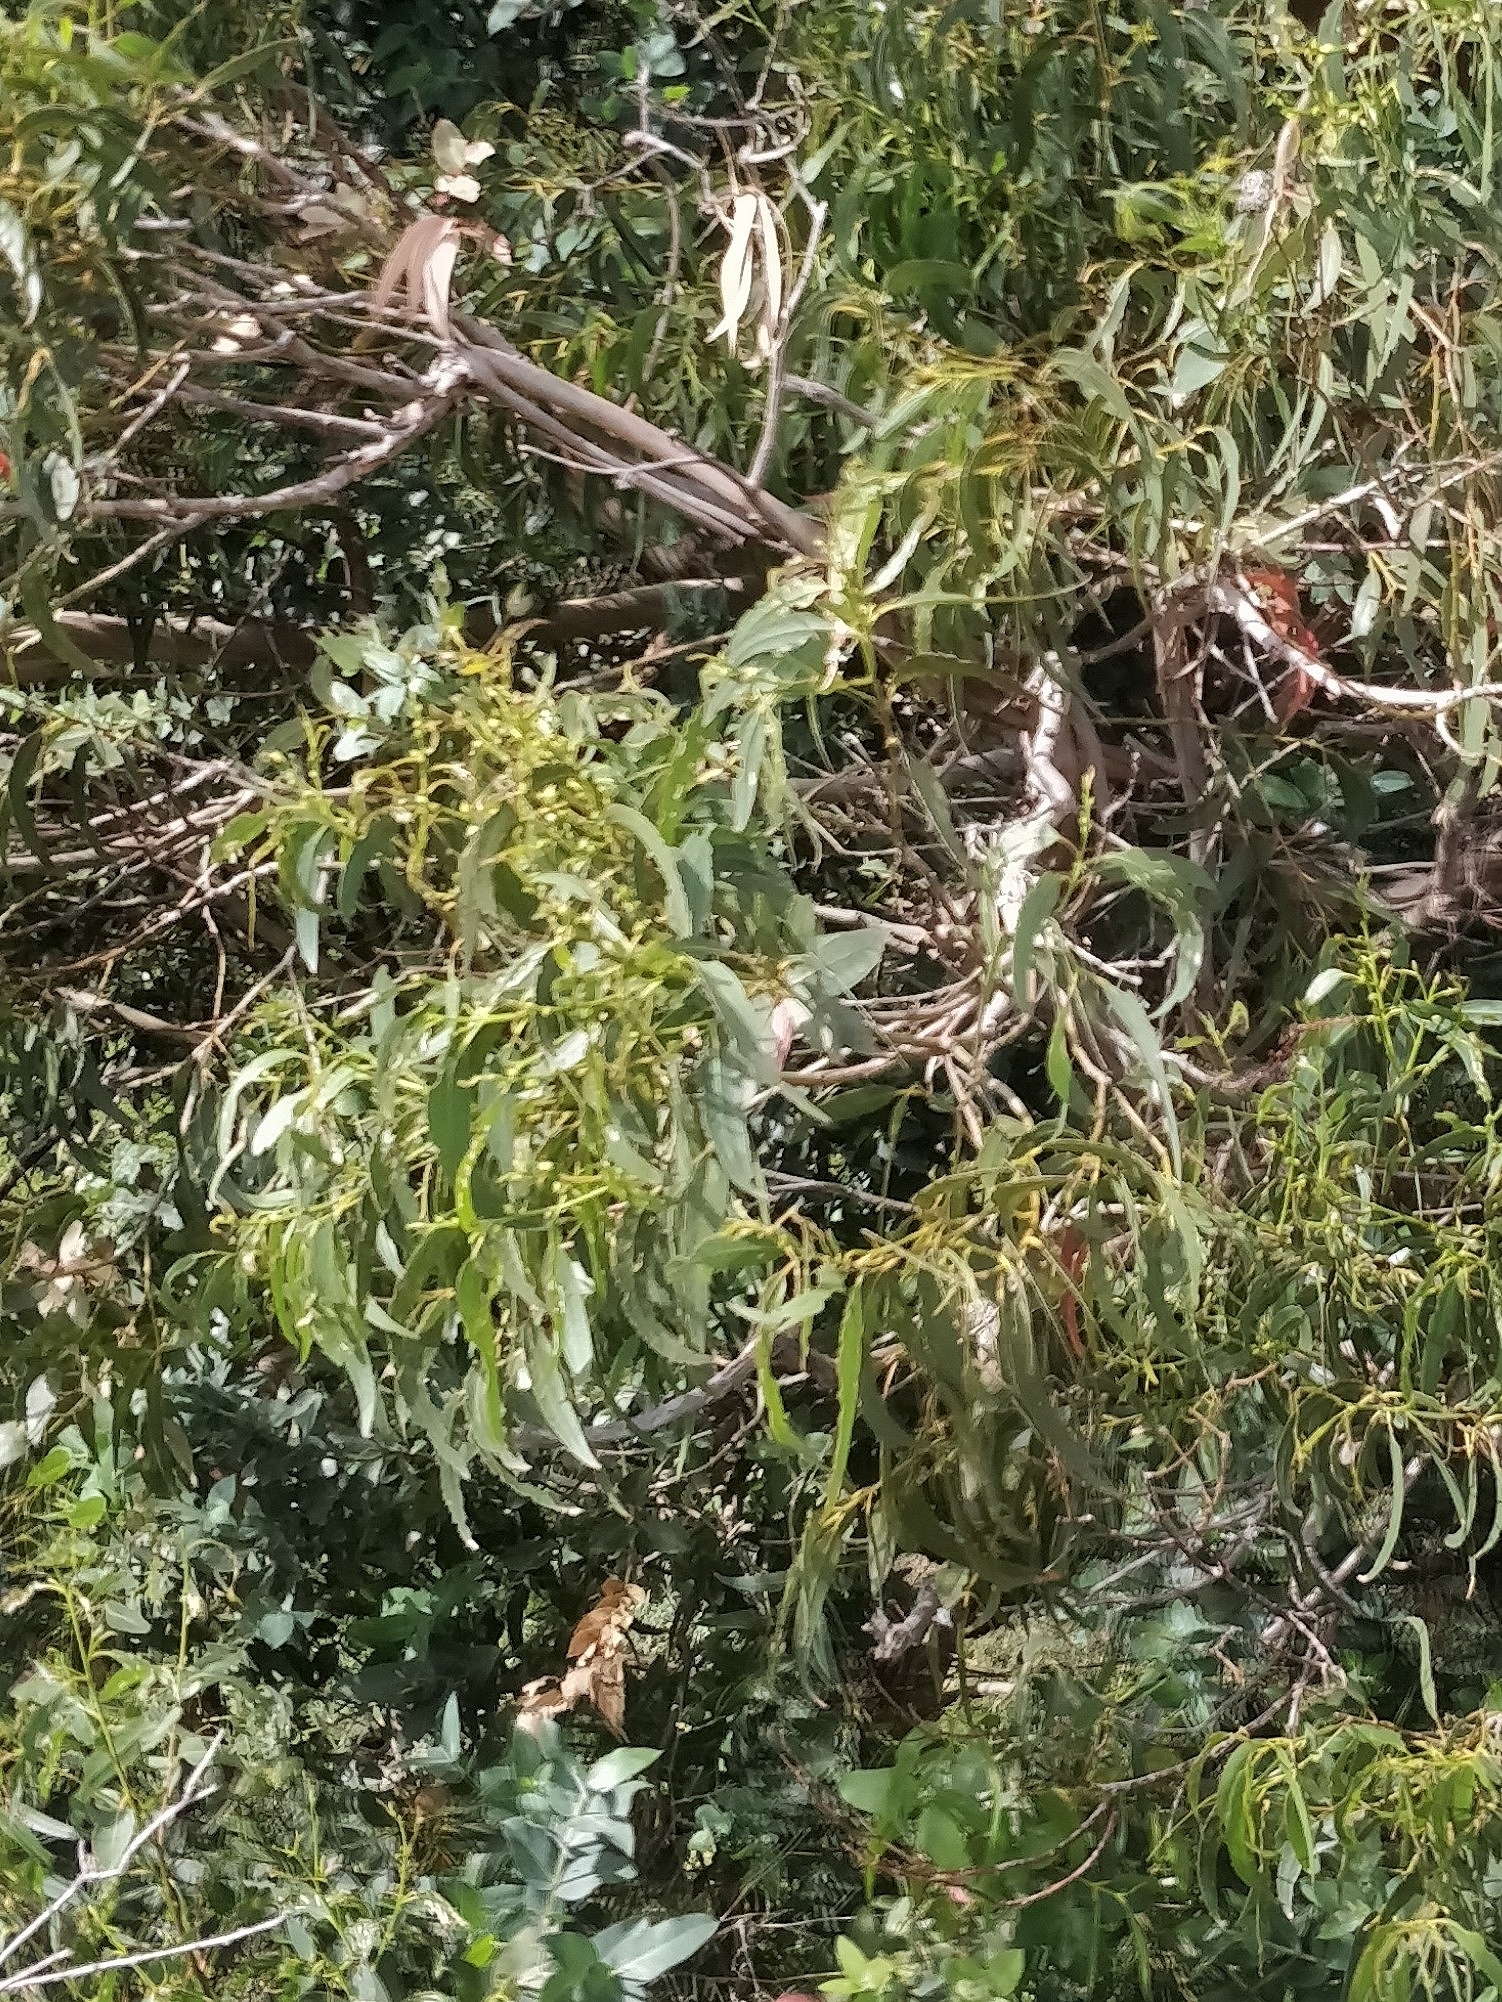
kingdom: Plantae
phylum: Tracheophyta
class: Magnoliopsida
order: Myrtales
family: Myrtaceae
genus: Eucalyptus
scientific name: Eucalyptus globulus
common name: Southern blue-gum
